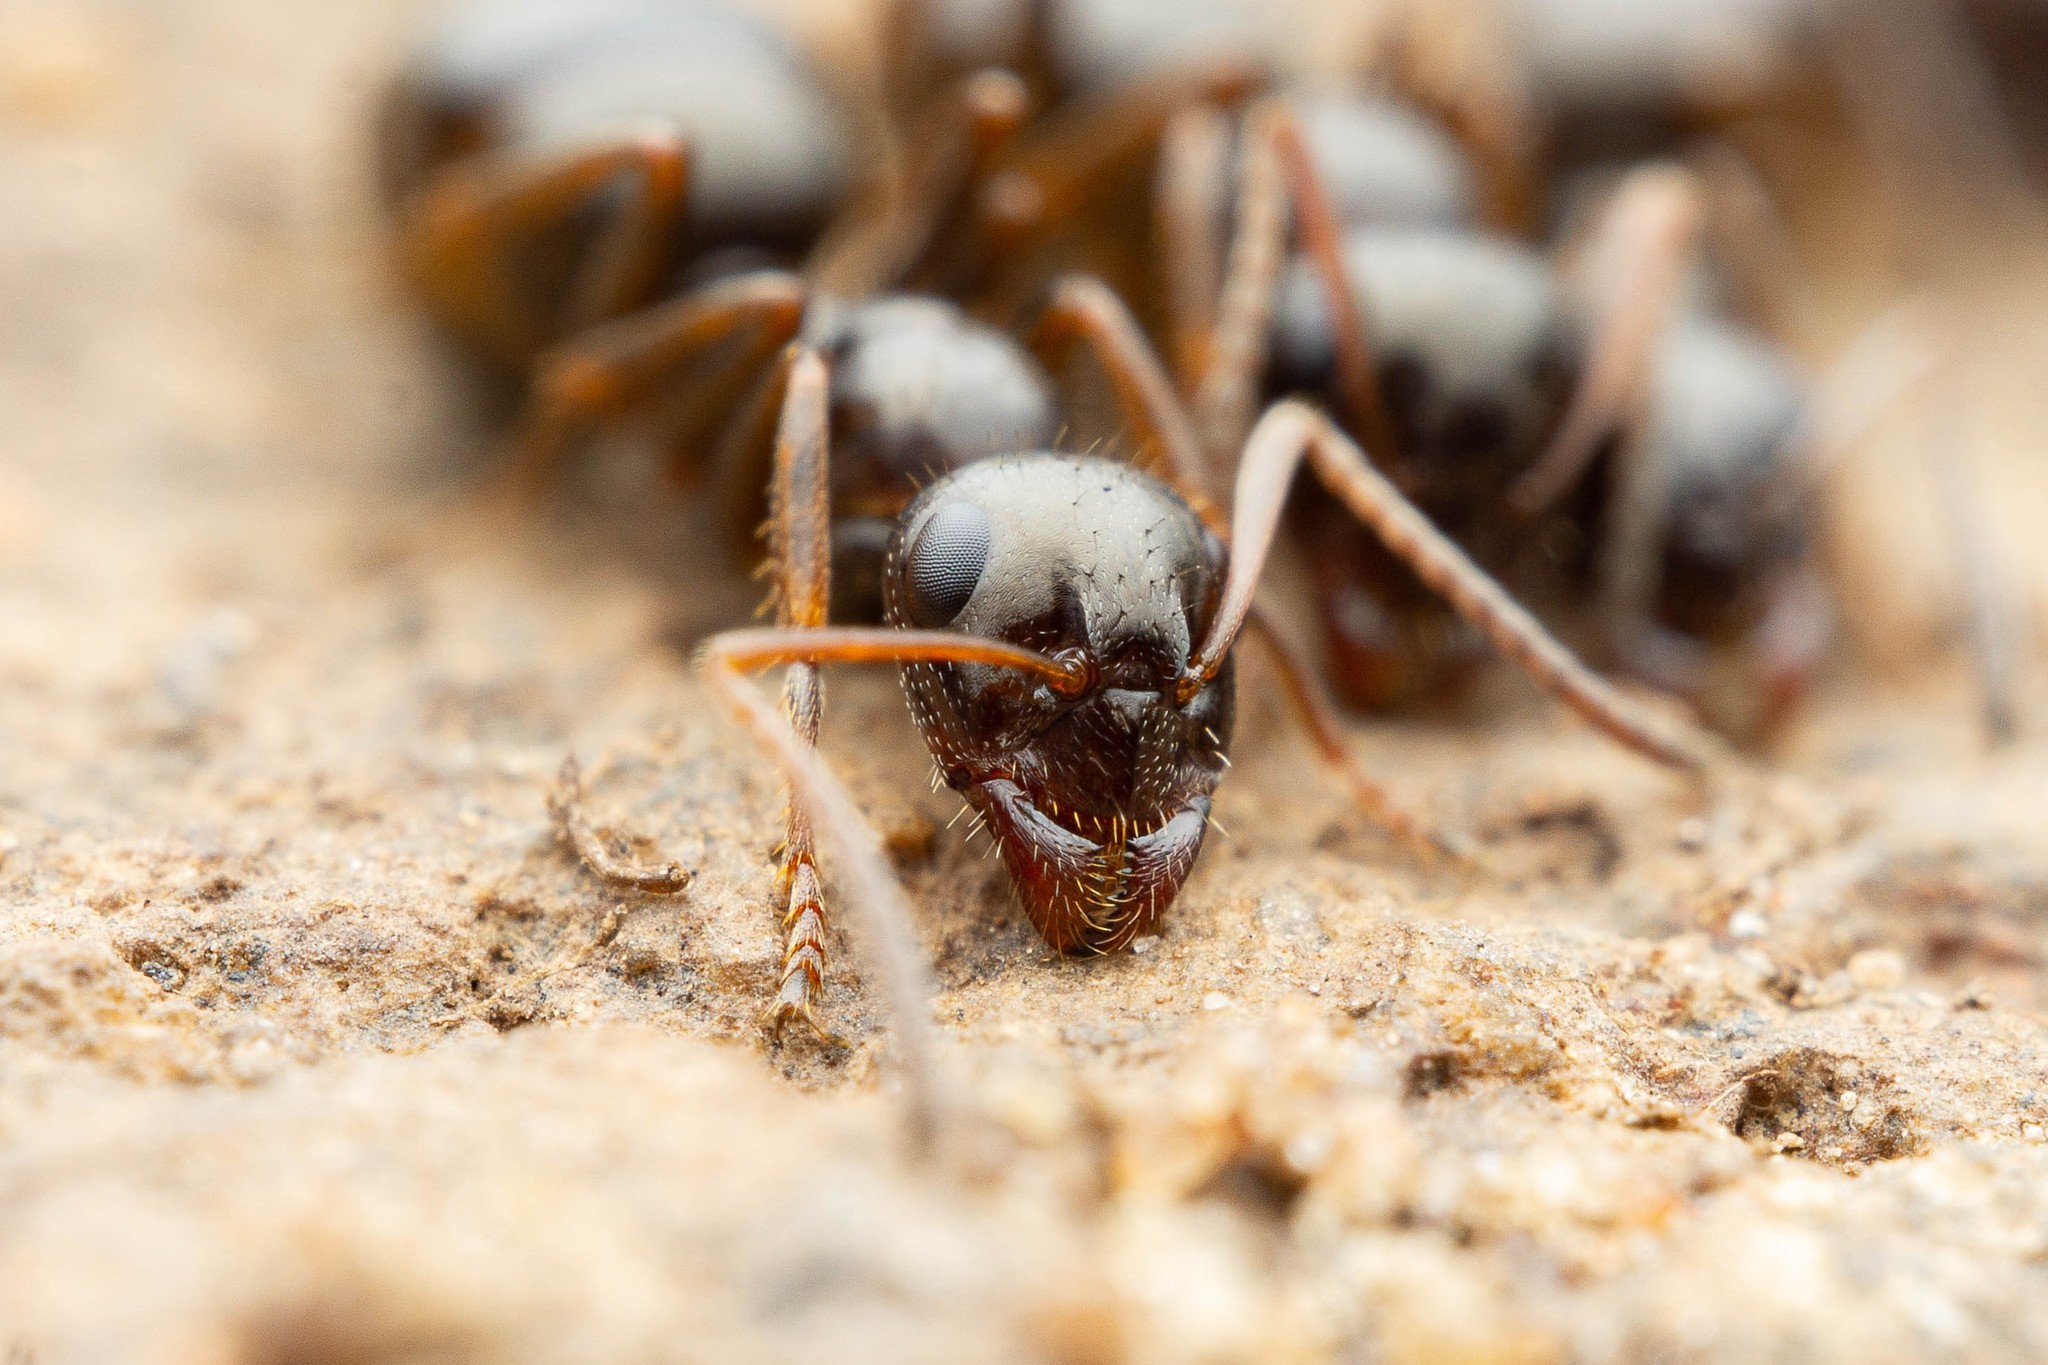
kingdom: Animalia
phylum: Arthropoda
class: Insecta
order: Hymenoptera
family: Formicidae
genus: Formica
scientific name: Formica neogagates
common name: New world black ant
